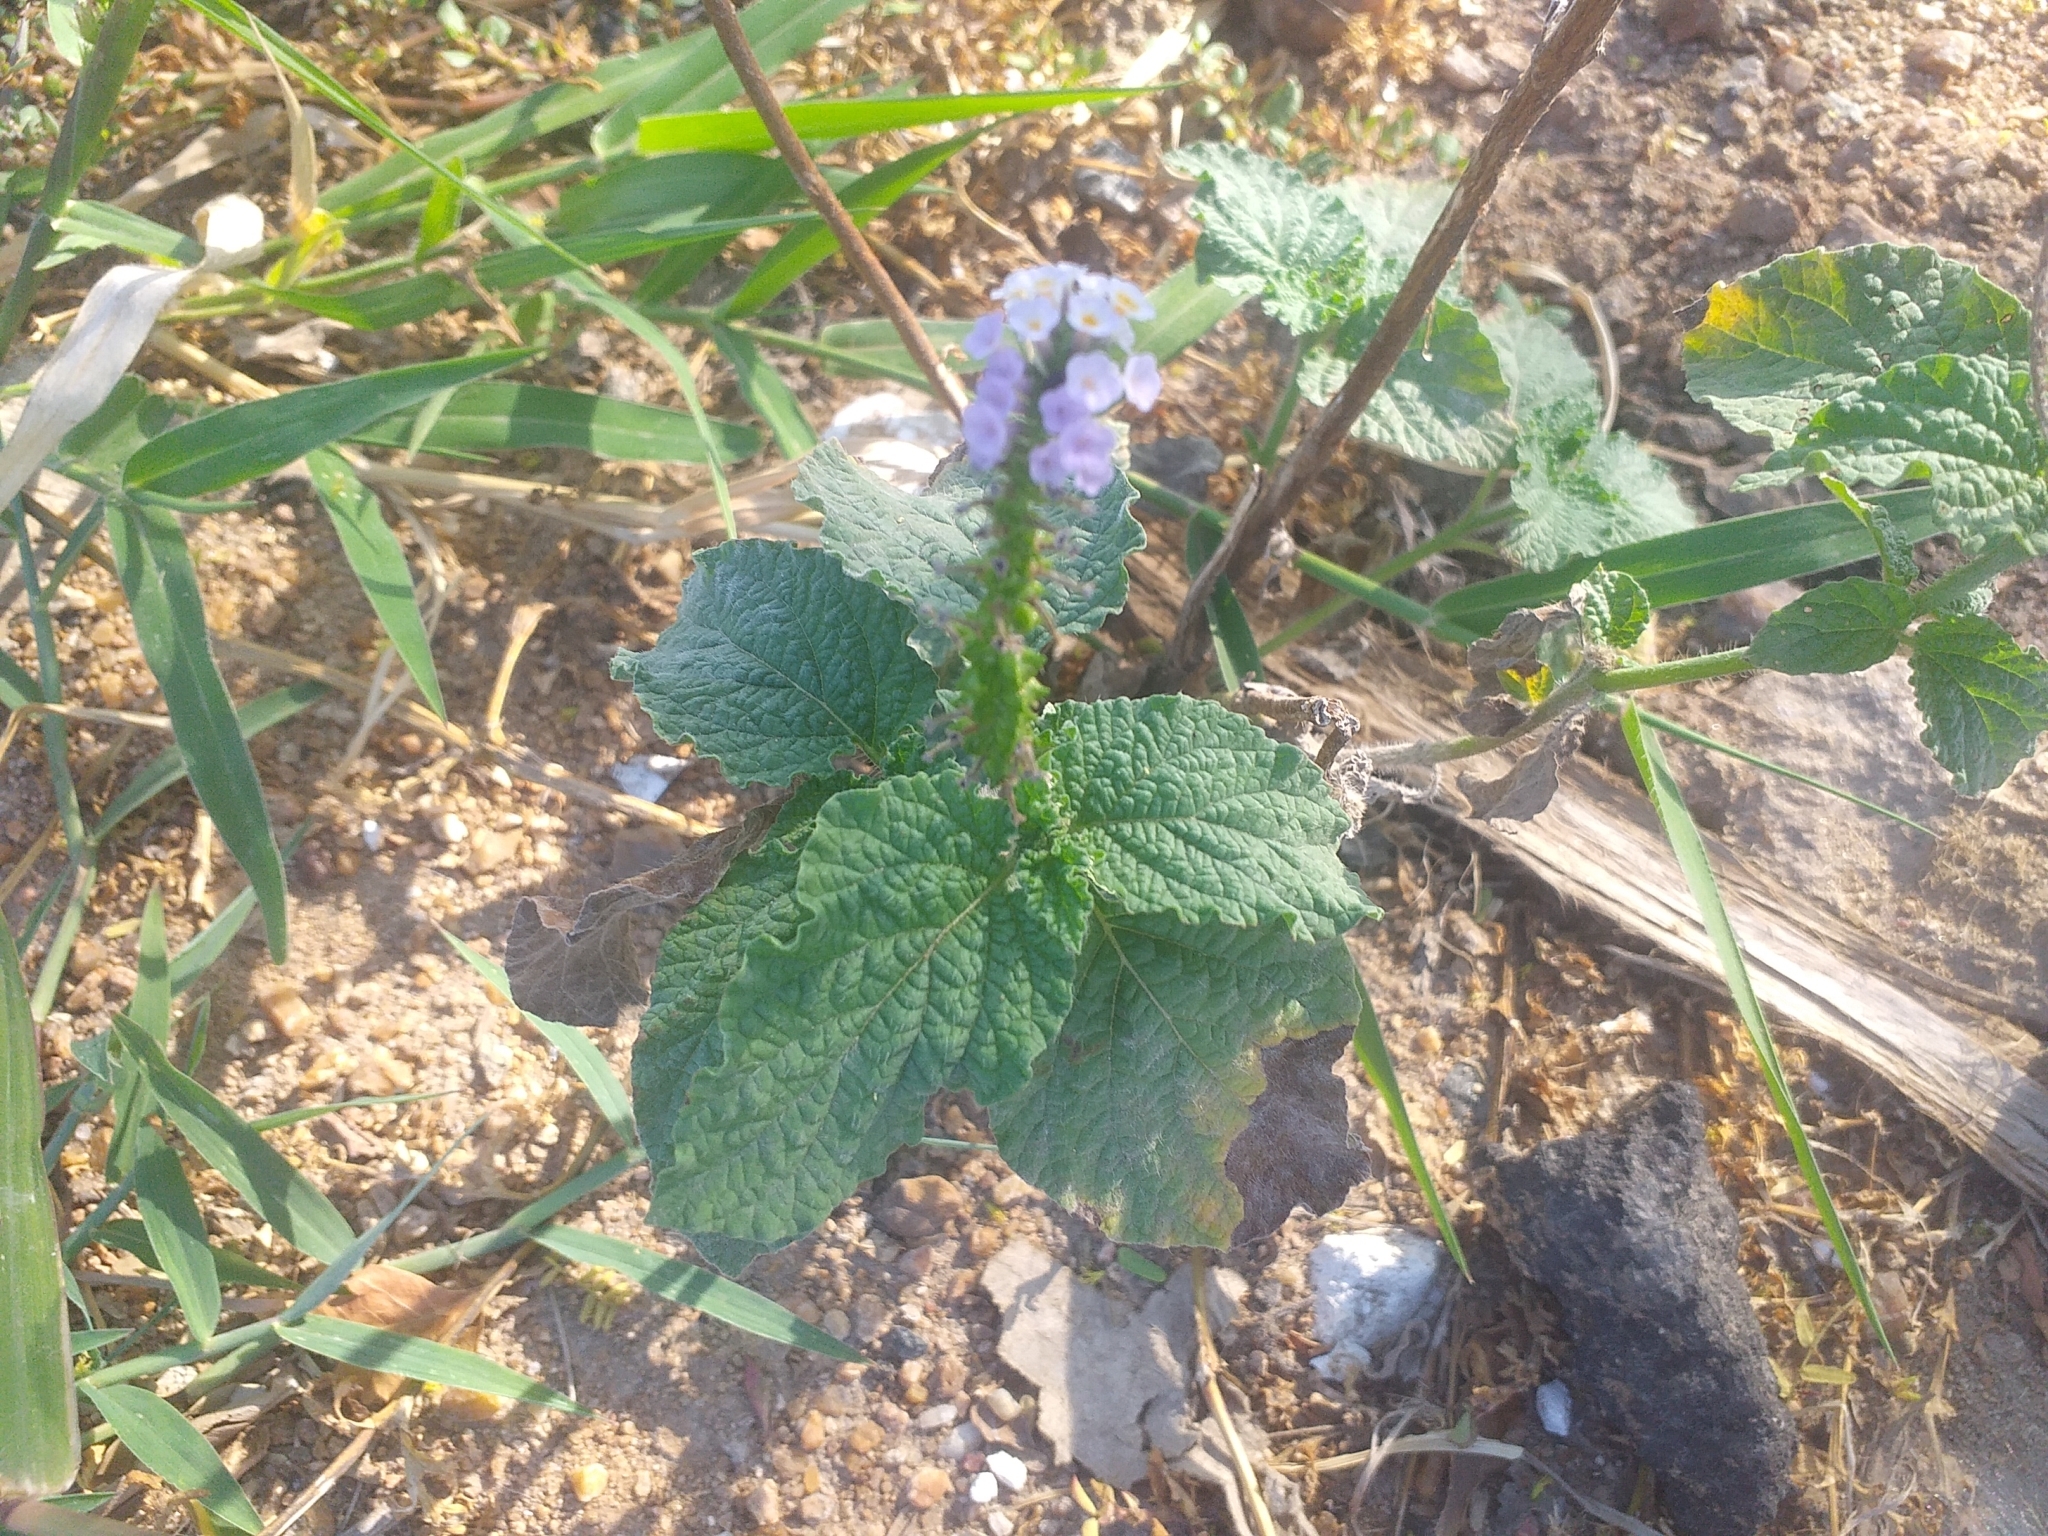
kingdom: Plantae
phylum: Tracheophyta
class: Magnoliopsida
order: Boraginales
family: Heliotropiaceae
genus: Heliotropium
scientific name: Heliotropium elongatum
